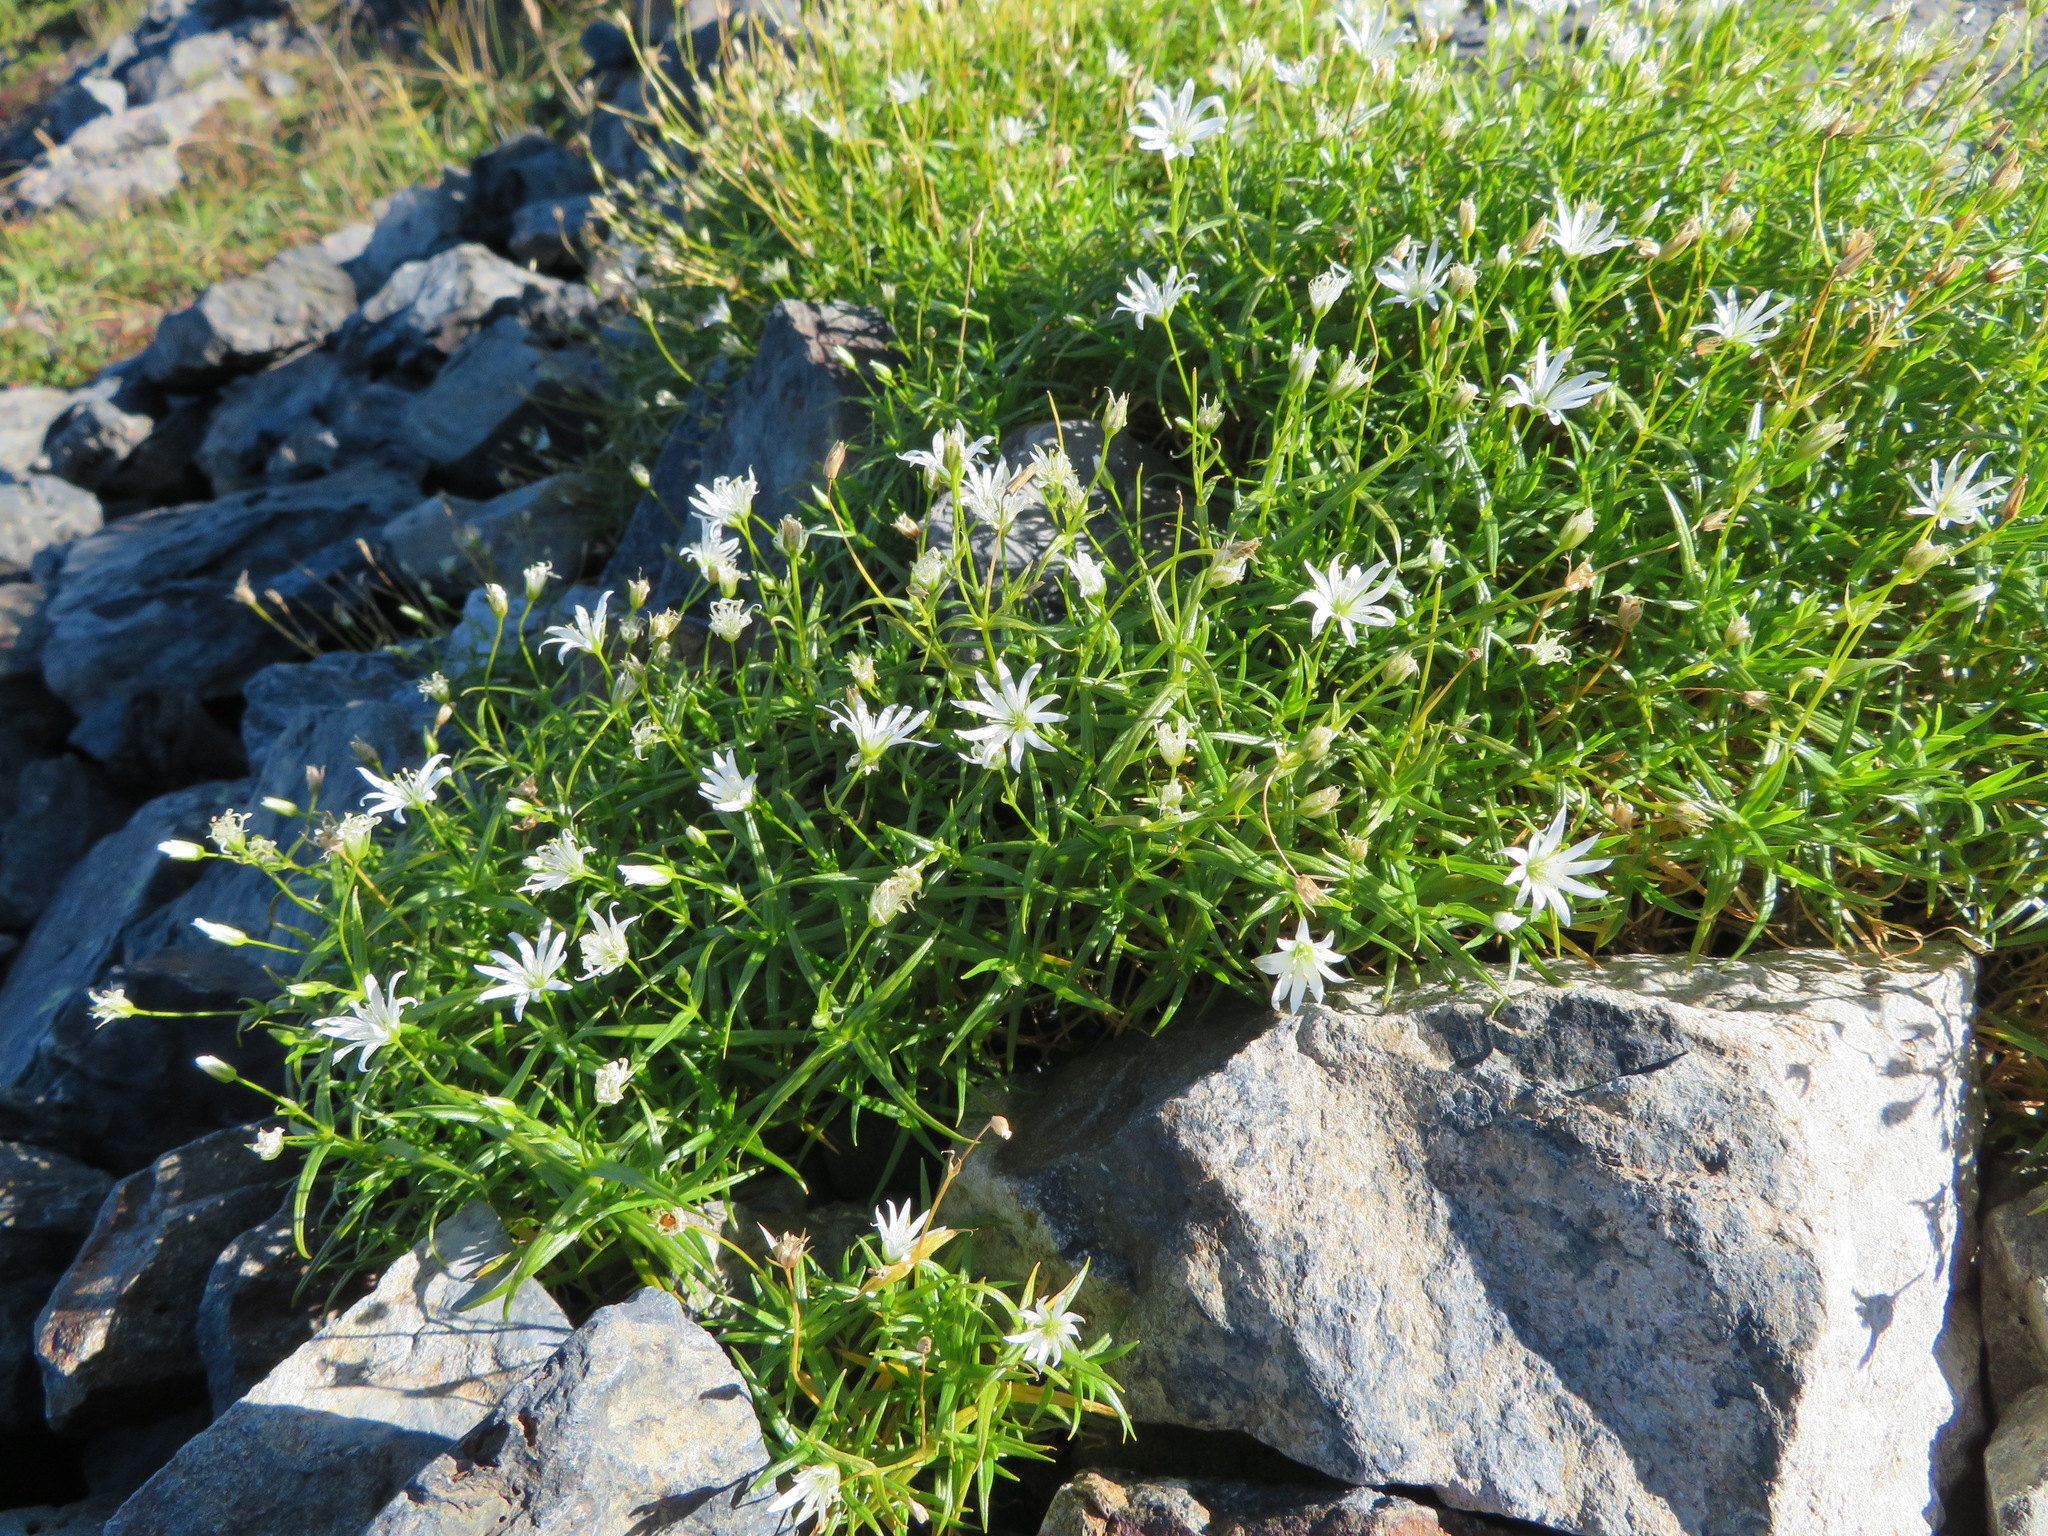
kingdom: Plantae
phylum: Tracheophyta
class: Magnoliopsida
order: Caryophyllales
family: Caryophyllaceae
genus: Stellaria
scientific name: Stellaria nipponica
